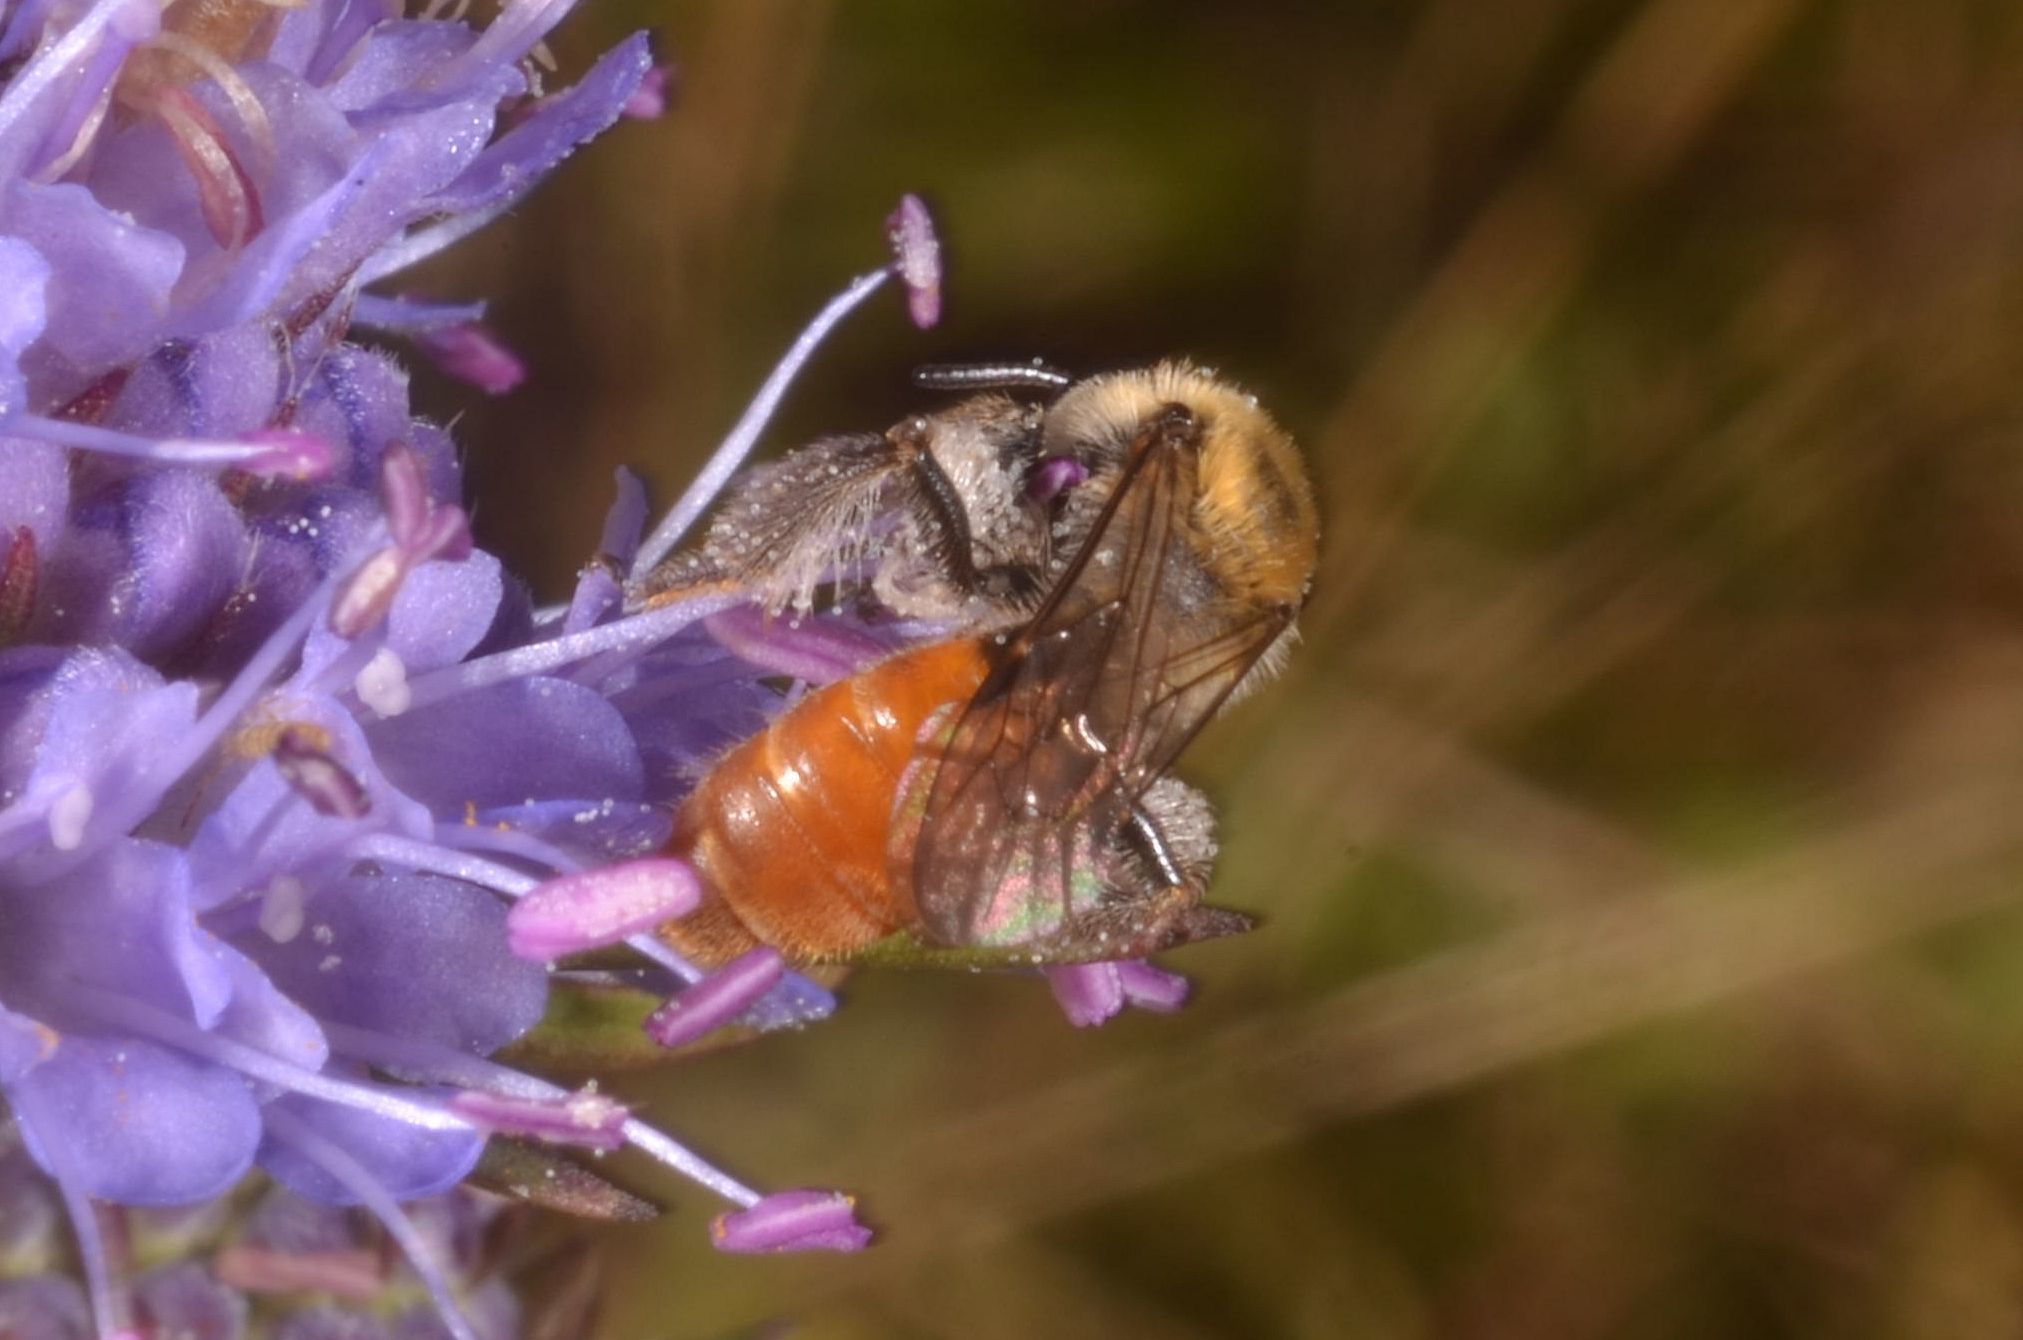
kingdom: Animalia
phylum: Arthropoda
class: Insecta
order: Hymenoptera
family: Andrenidae
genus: Andrena
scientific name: Andrena marginata
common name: Small scabious mining bee
